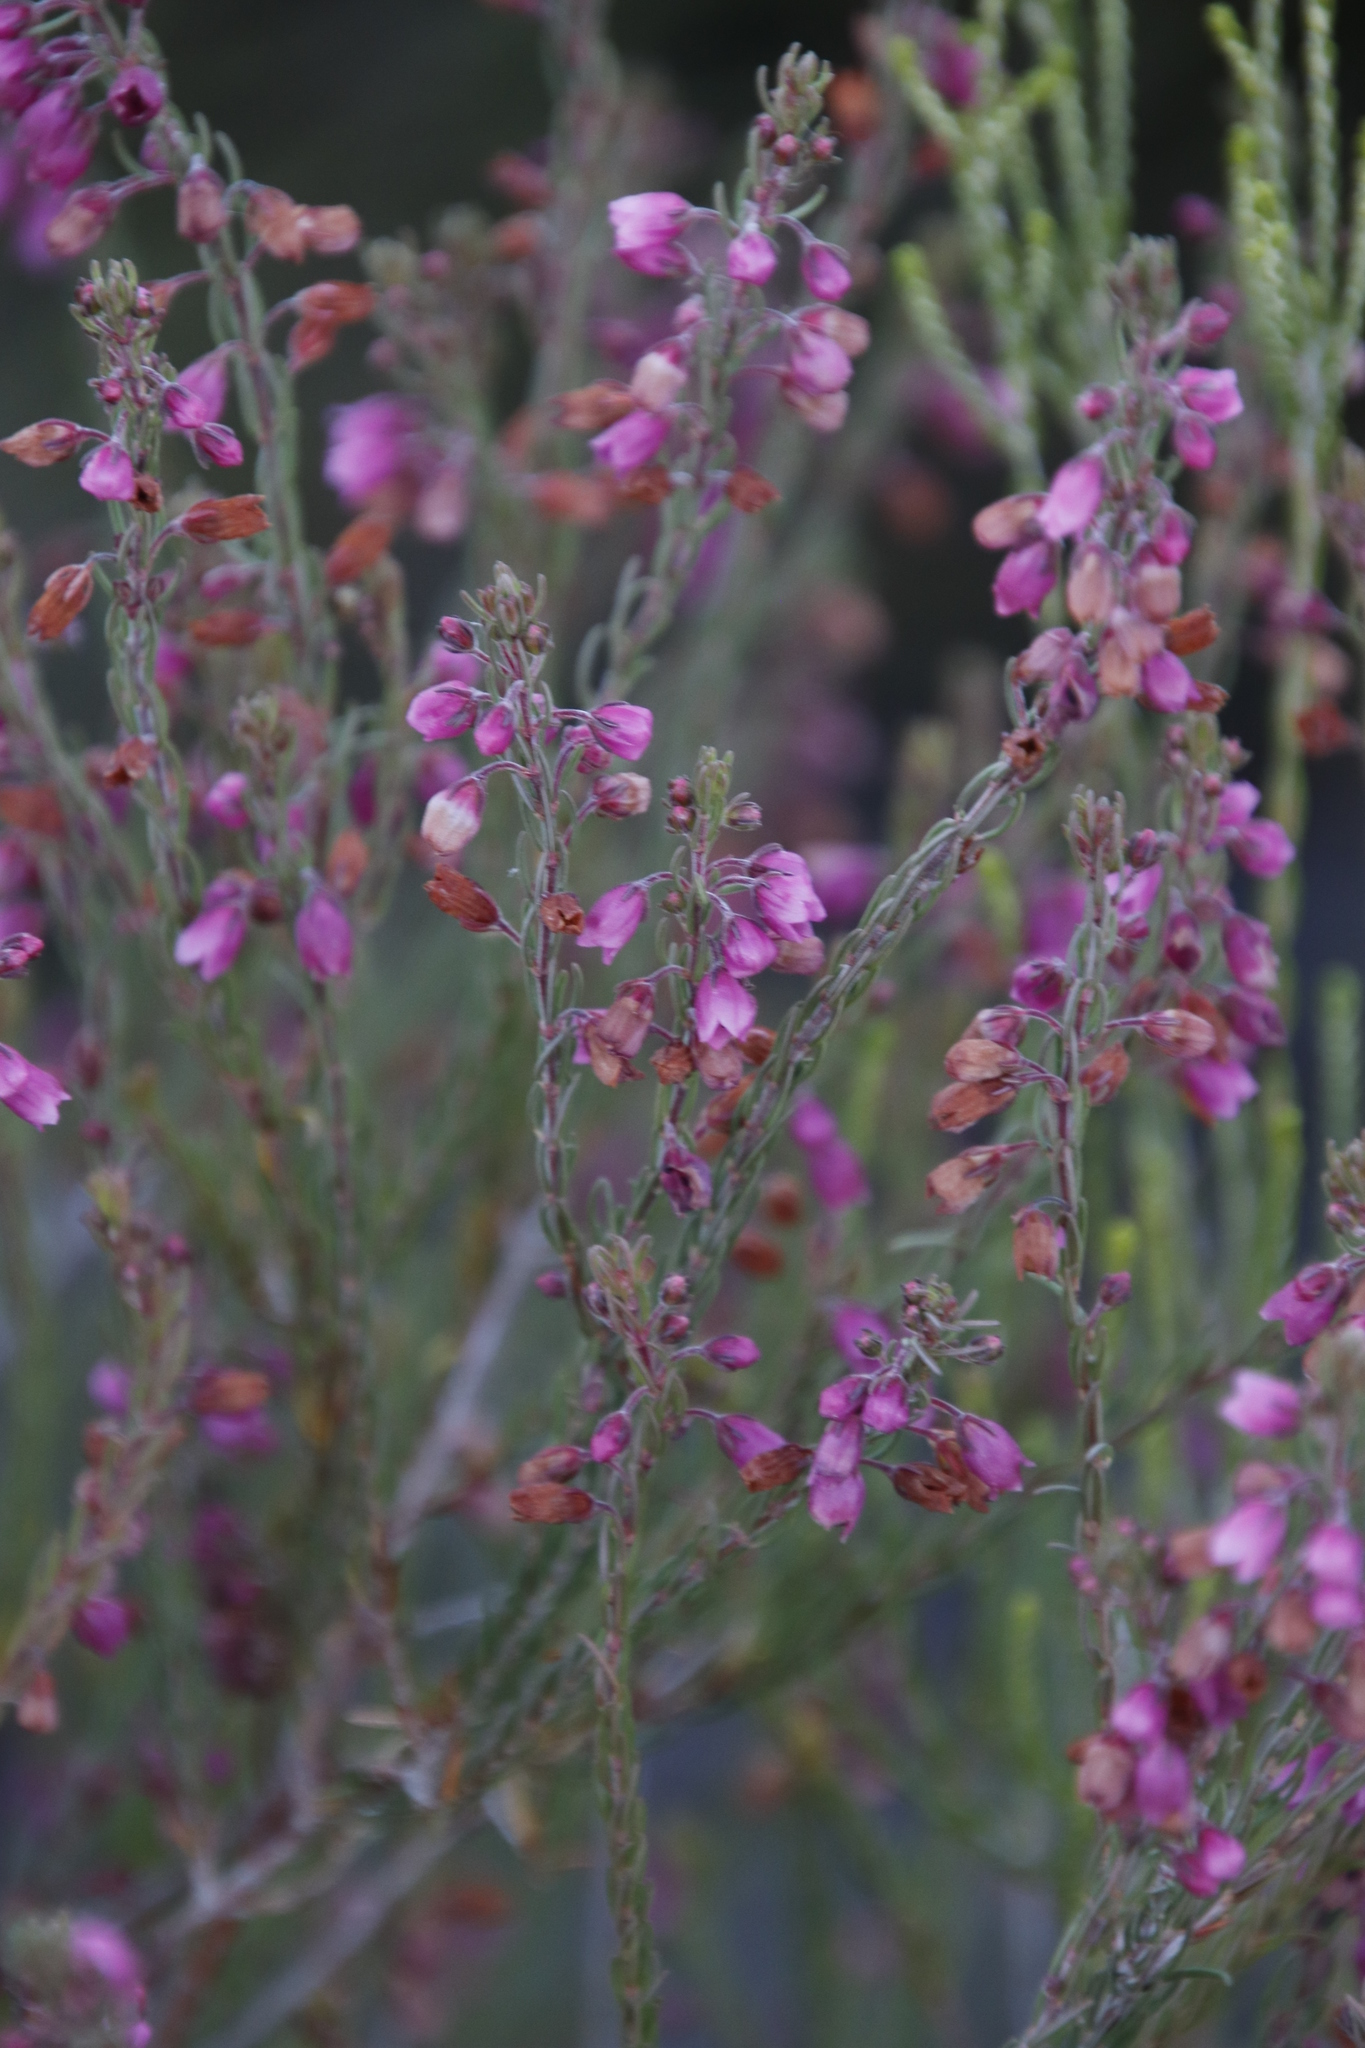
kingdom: Plantae
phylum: Tracheophyta
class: Magnoliopsida
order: Ericales
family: Ericaceae
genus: Erica
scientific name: Erica viscaria
